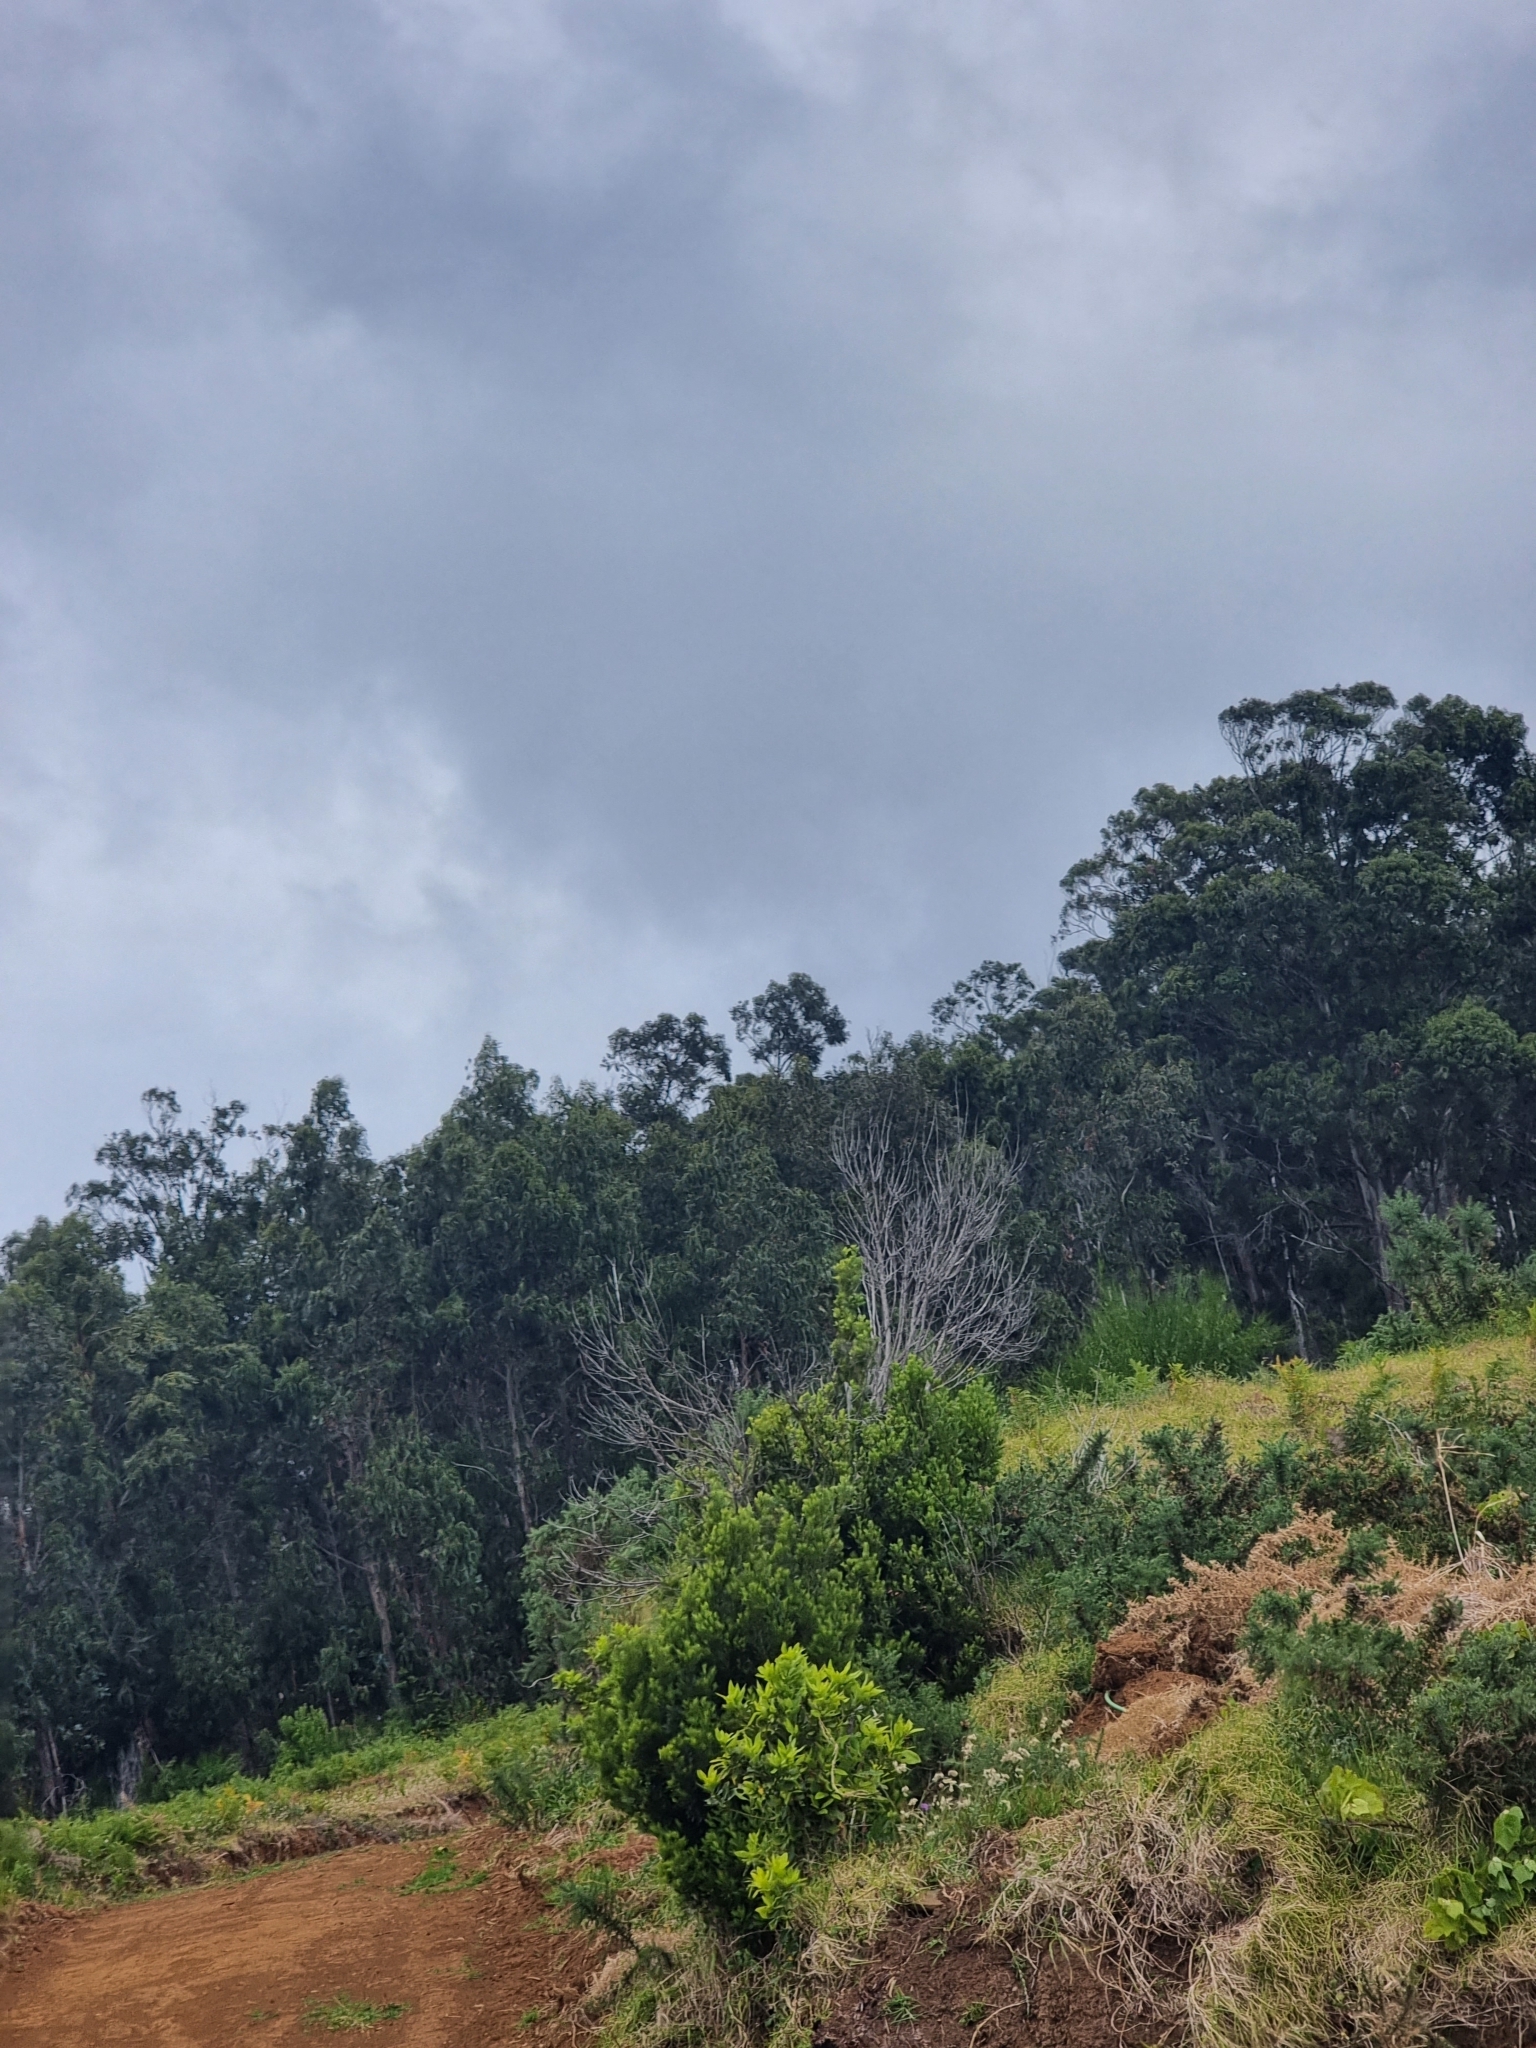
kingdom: Plantae
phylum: Tracheophyta
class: Magnoliopsida
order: Myrtales
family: Myrtaceae
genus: Eucalyptus
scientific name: Eucalyptus globulus
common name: Southern blue-gum
